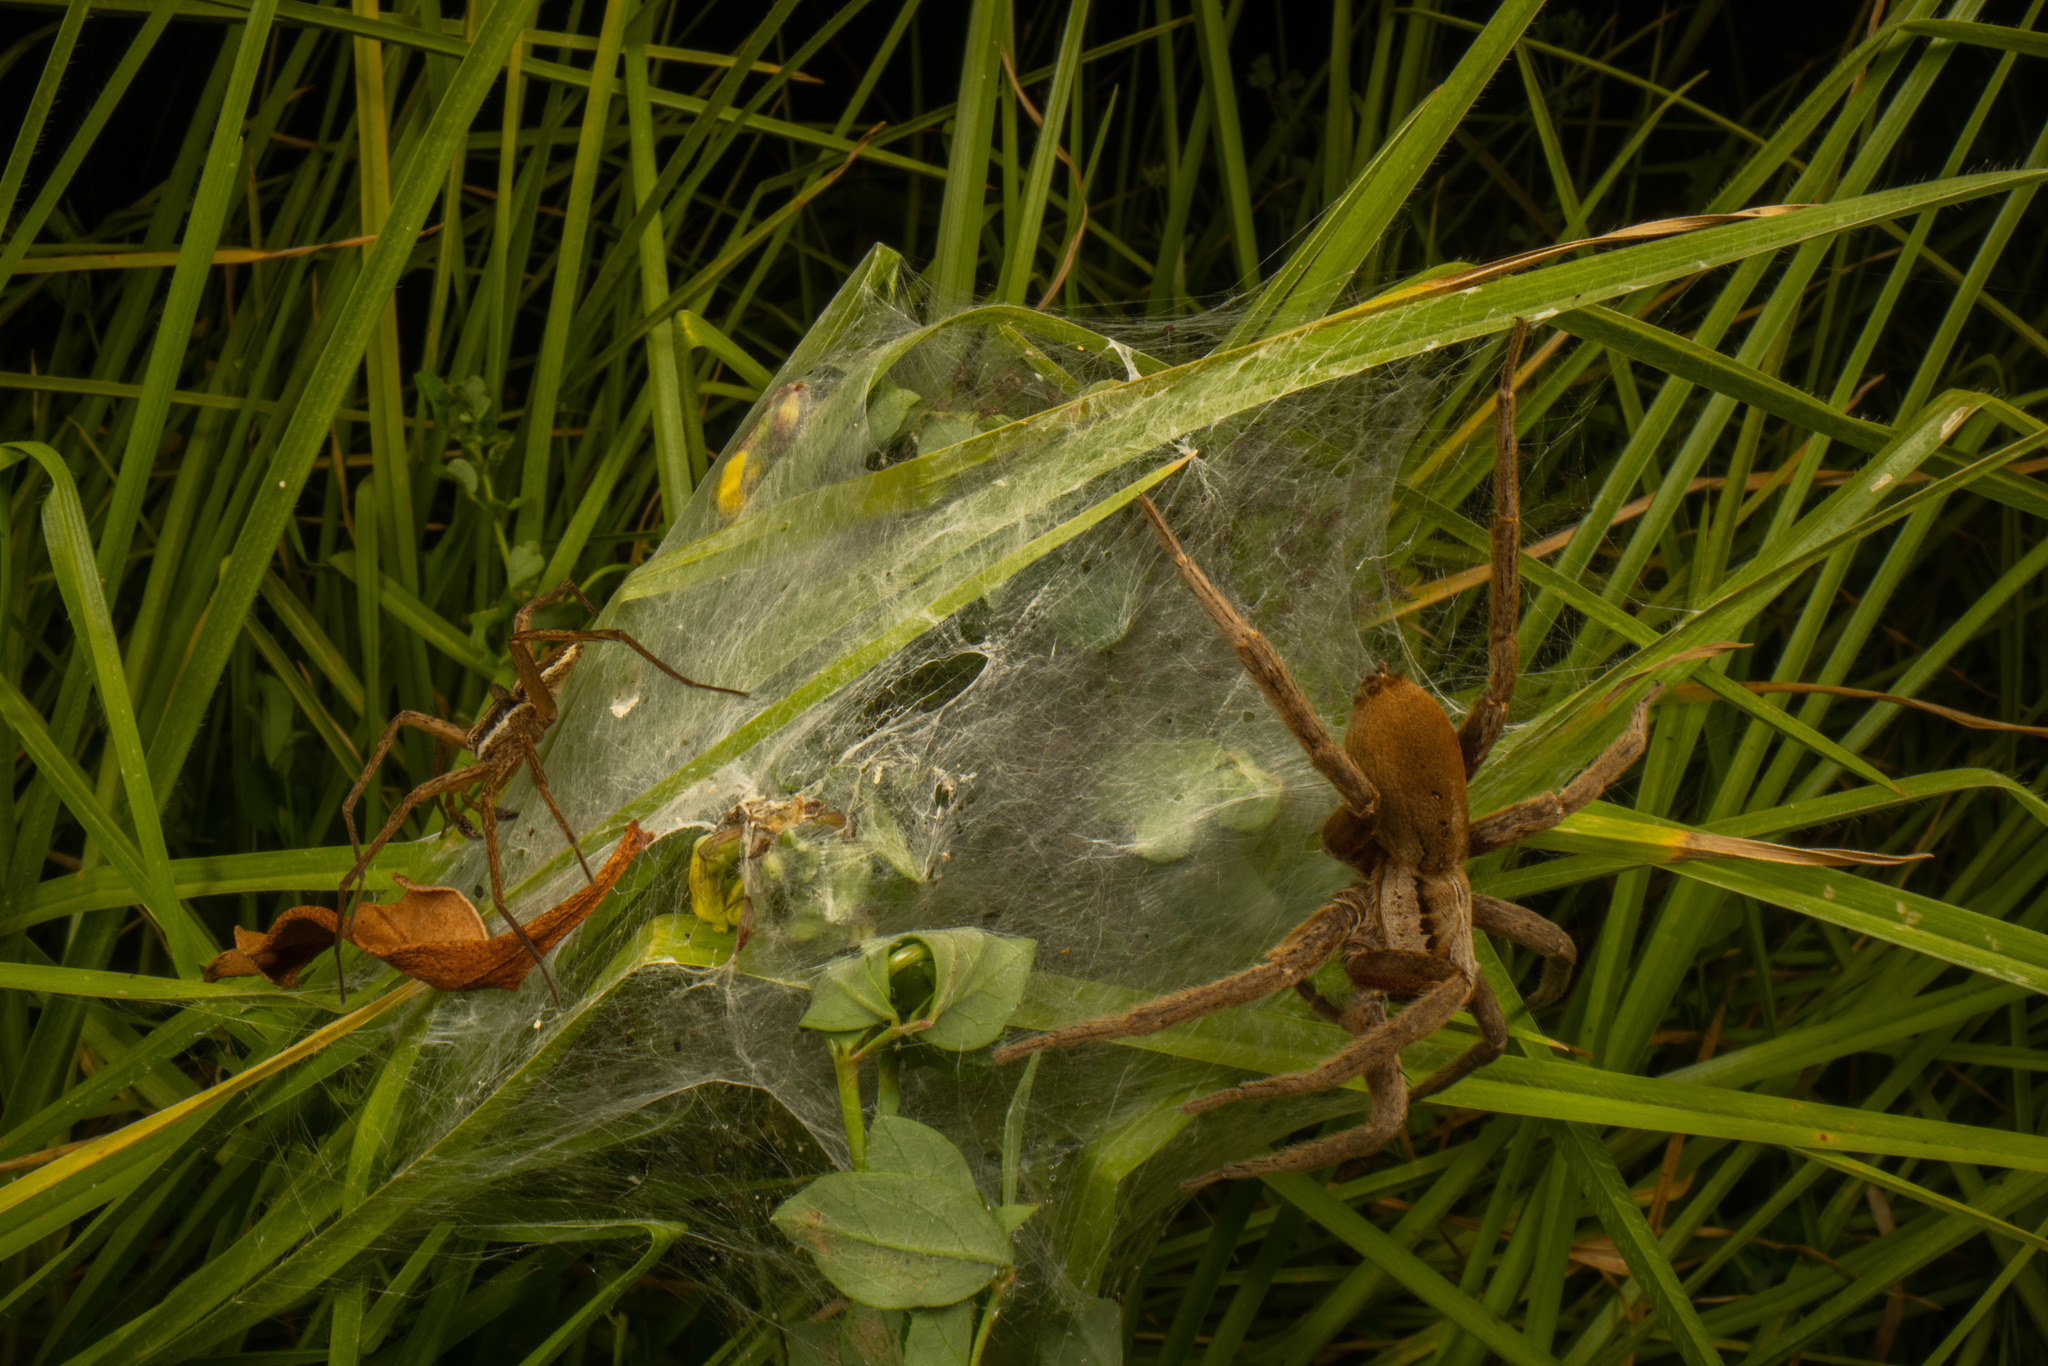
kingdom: Animalia
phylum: Arthropoda
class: Arachnida
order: Araneae
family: Pisauridae
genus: Dolomedes
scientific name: Dolomedes minor
